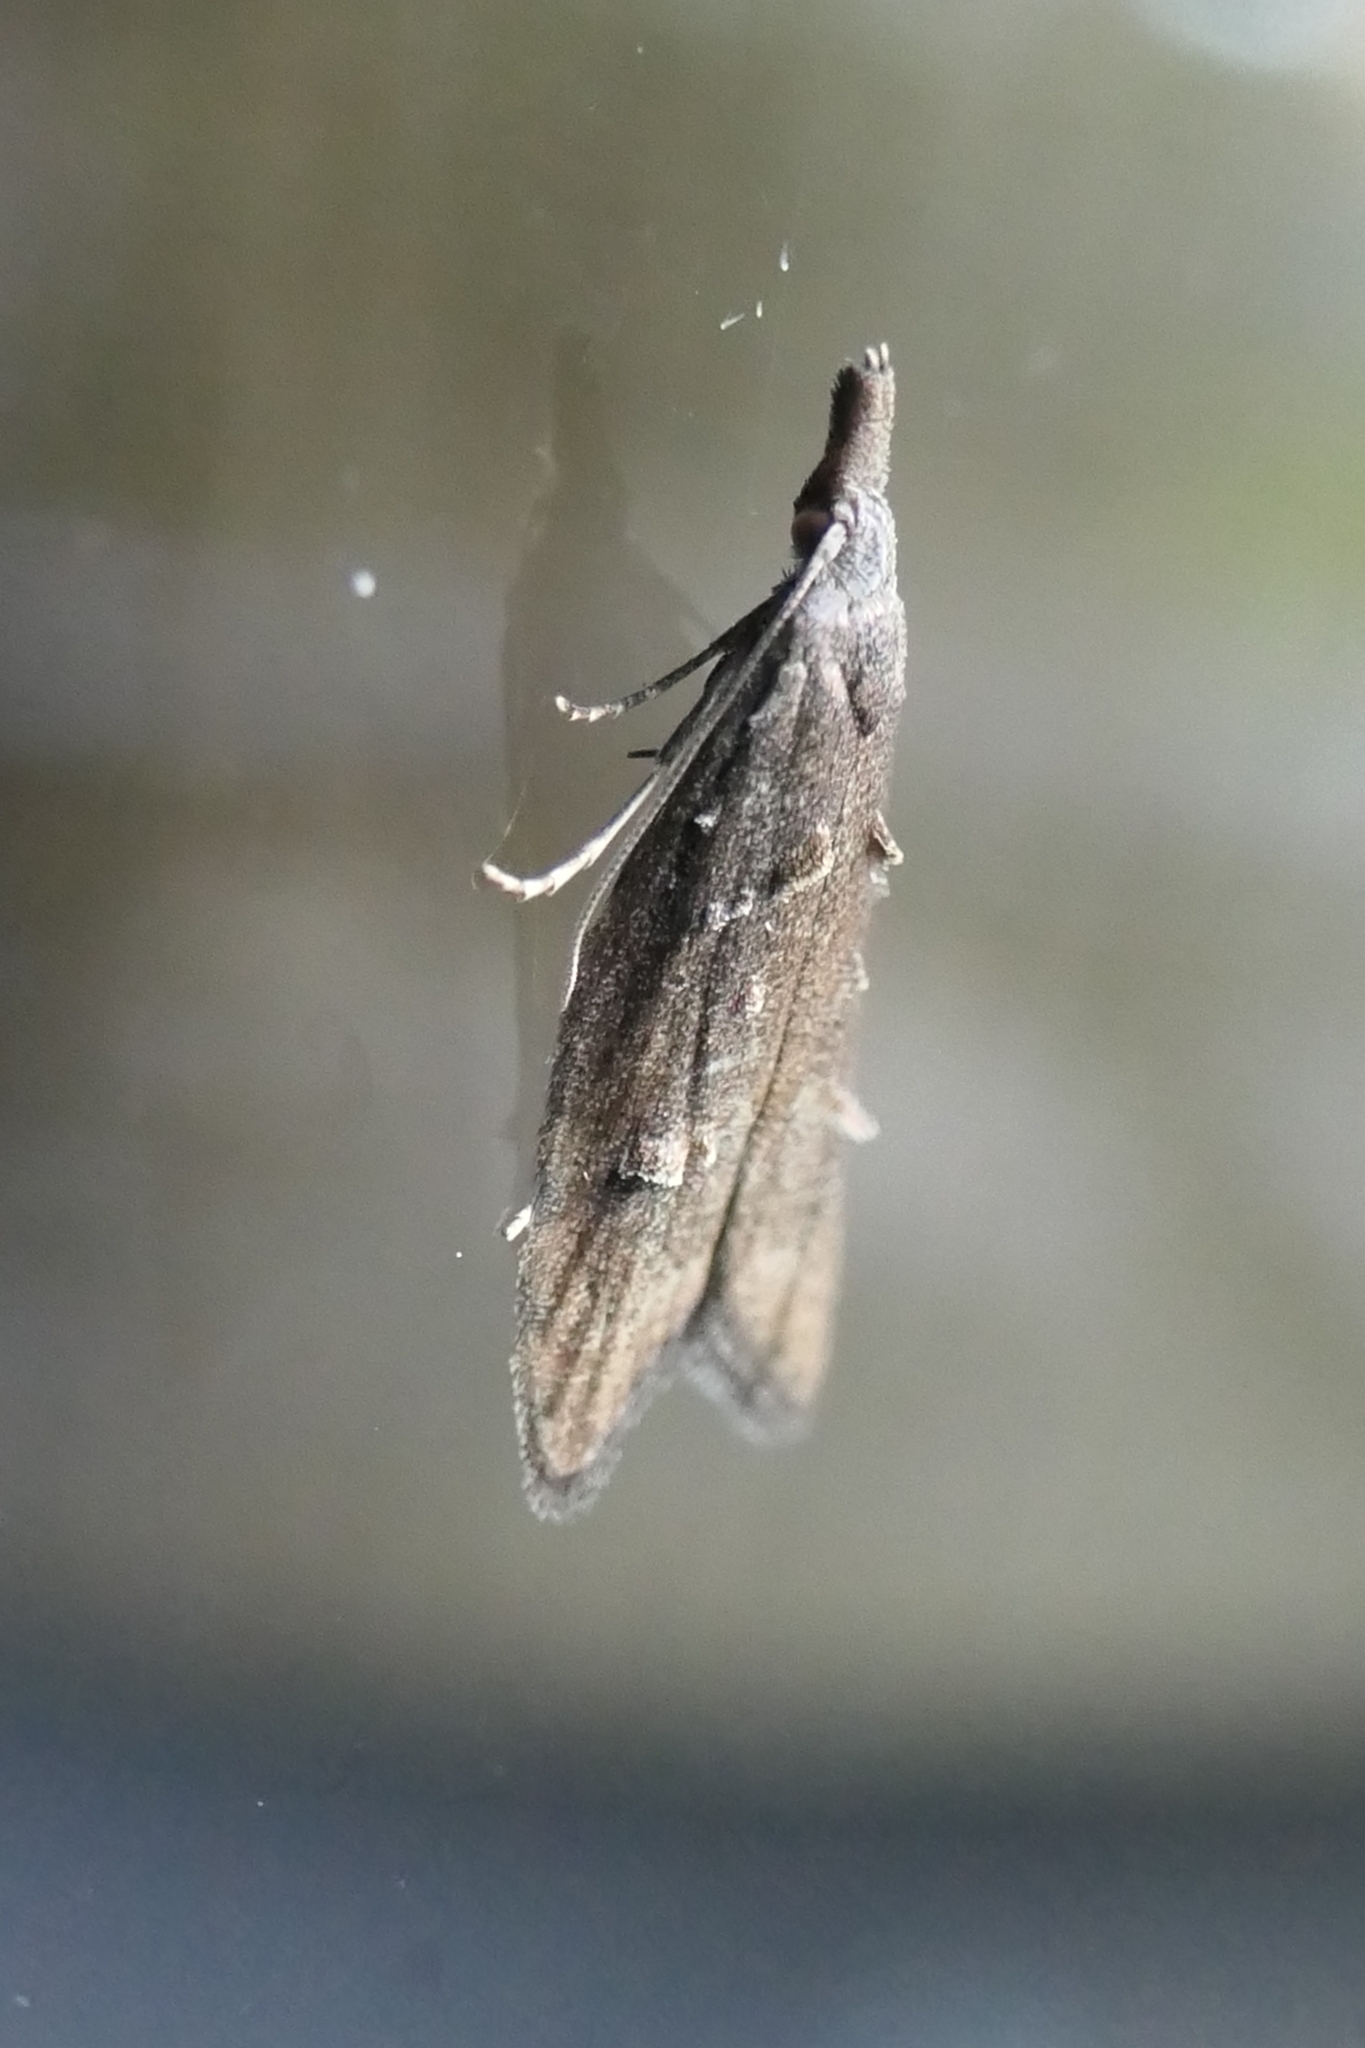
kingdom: Animalia
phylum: Arthropoda
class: Insecta
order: Lepidoptera
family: Carposinidae
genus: Carposina
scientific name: Carposina rubophaga
